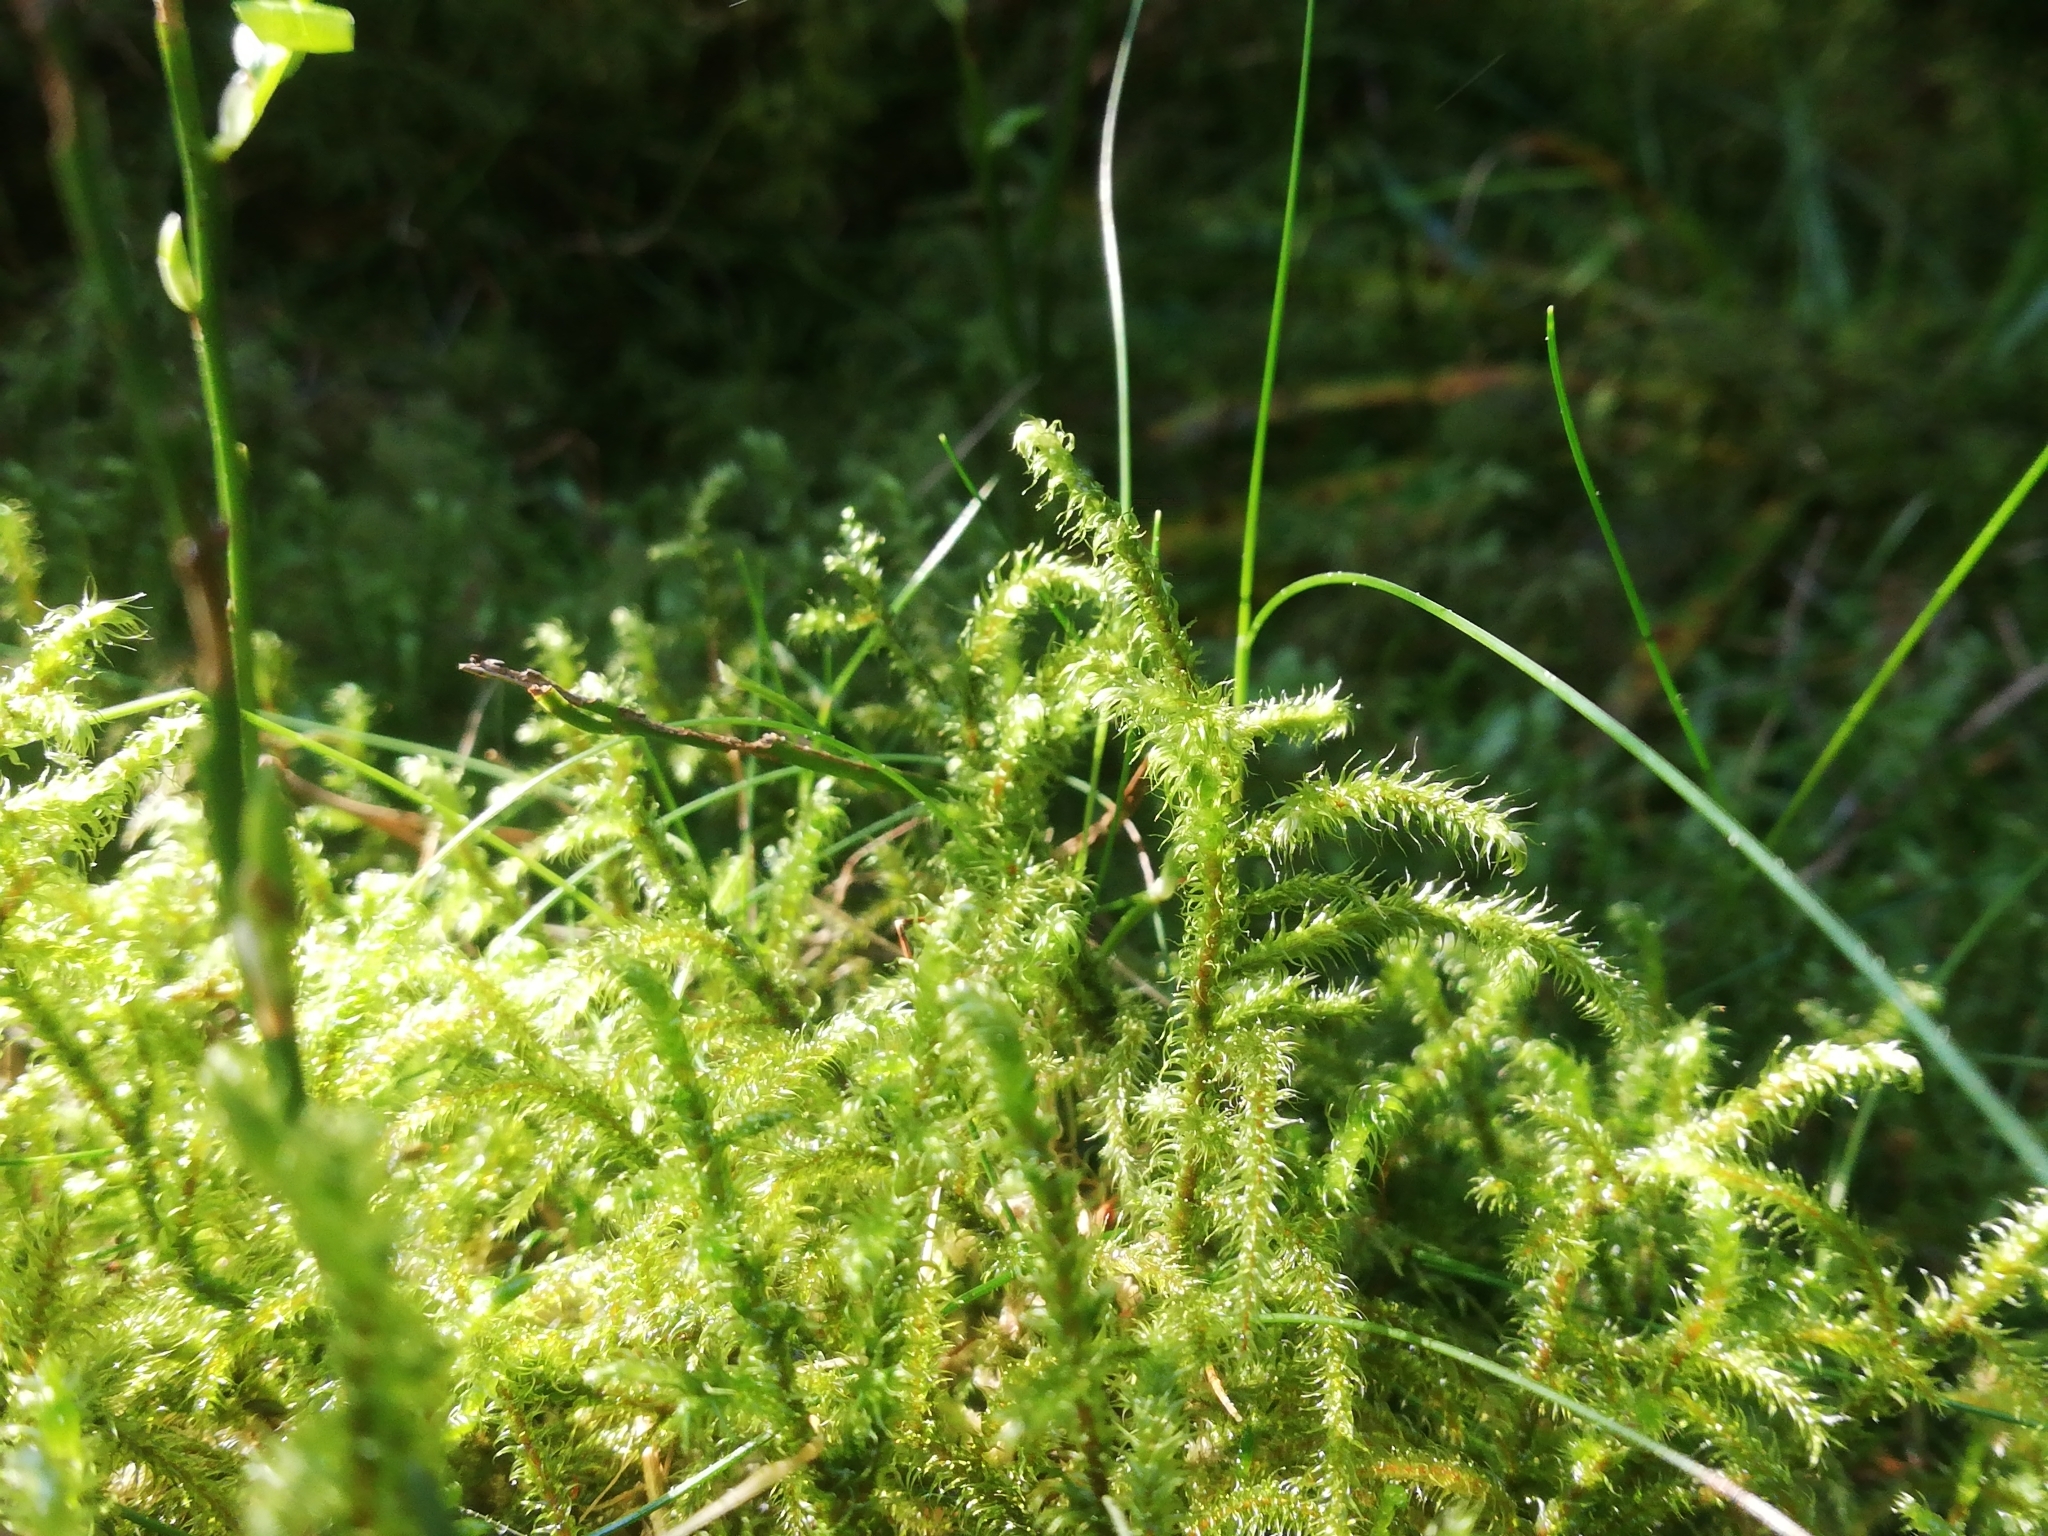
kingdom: Plantae
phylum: Bryophyta
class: Bryopsida
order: Hypnales
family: Hylocomiaceae
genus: Rhytidiadelphus
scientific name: Rhytidiadelphus loreus
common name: Lanky moss
